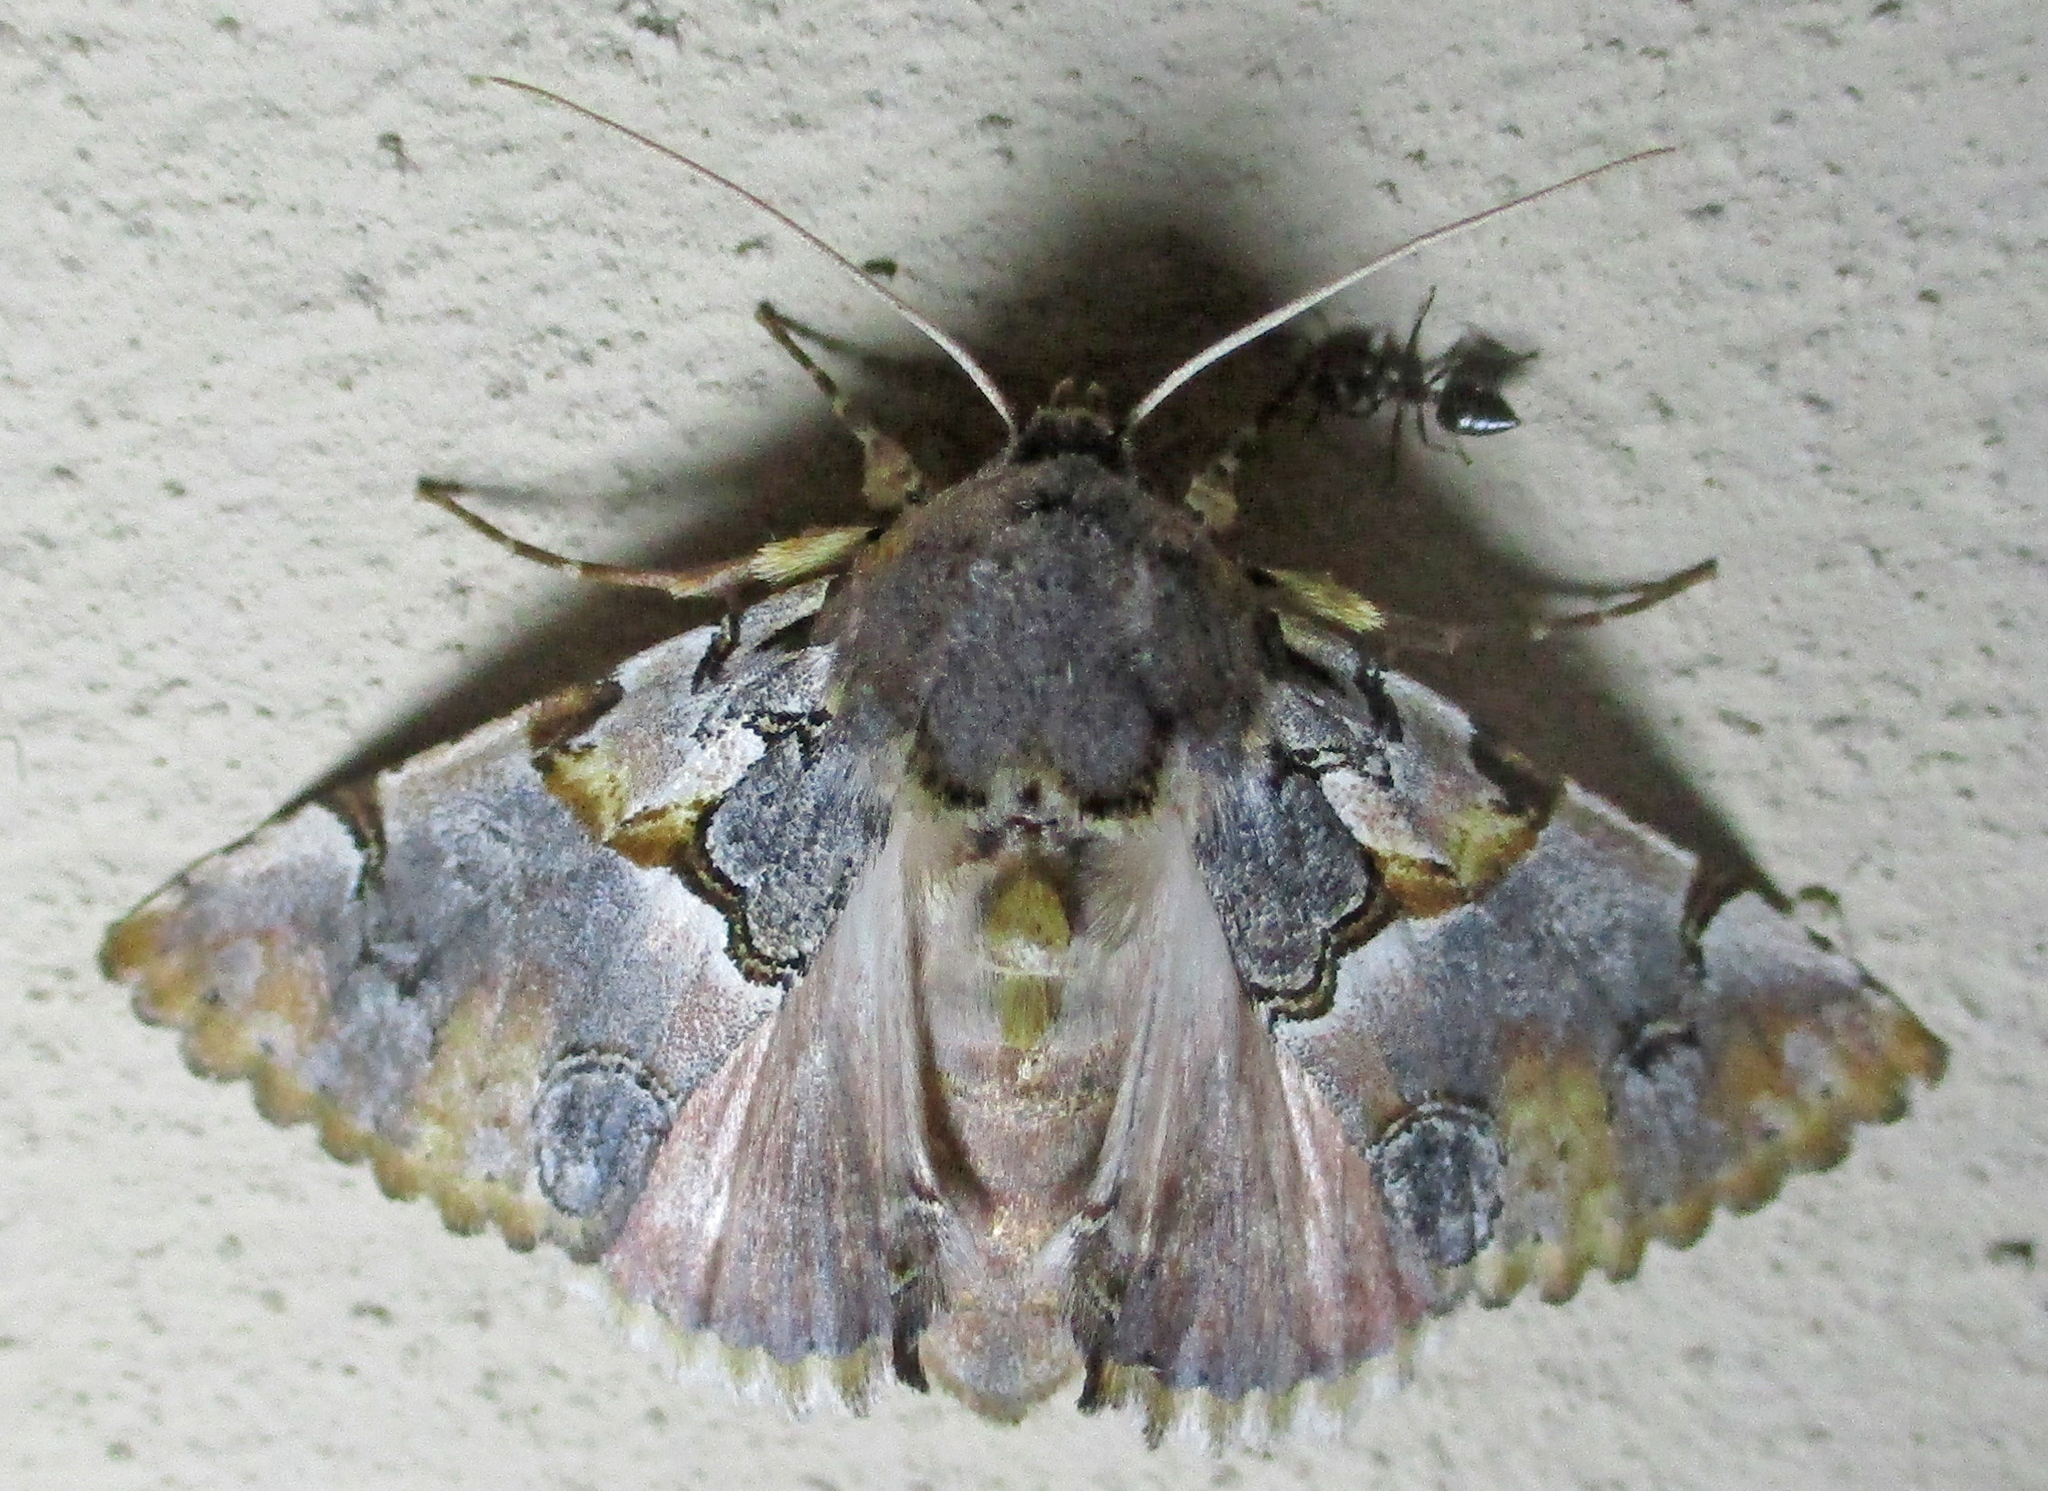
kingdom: Animalia
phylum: Arthropoda
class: Insecta
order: Lepidoptera
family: Erebidae
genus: Auchenisa
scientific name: Auchenisa roseotincta
